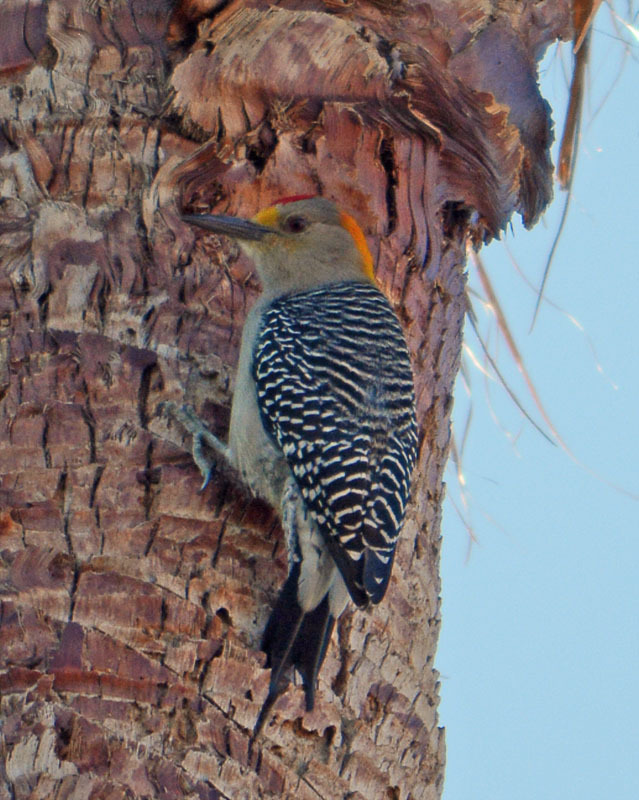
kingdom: Animalia
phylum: Chordata
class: Aves
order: Piciformes
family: Picidae
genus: Melanerpes
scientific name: Melanerpes aurifrons
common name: Golden-fronted woodpecker
